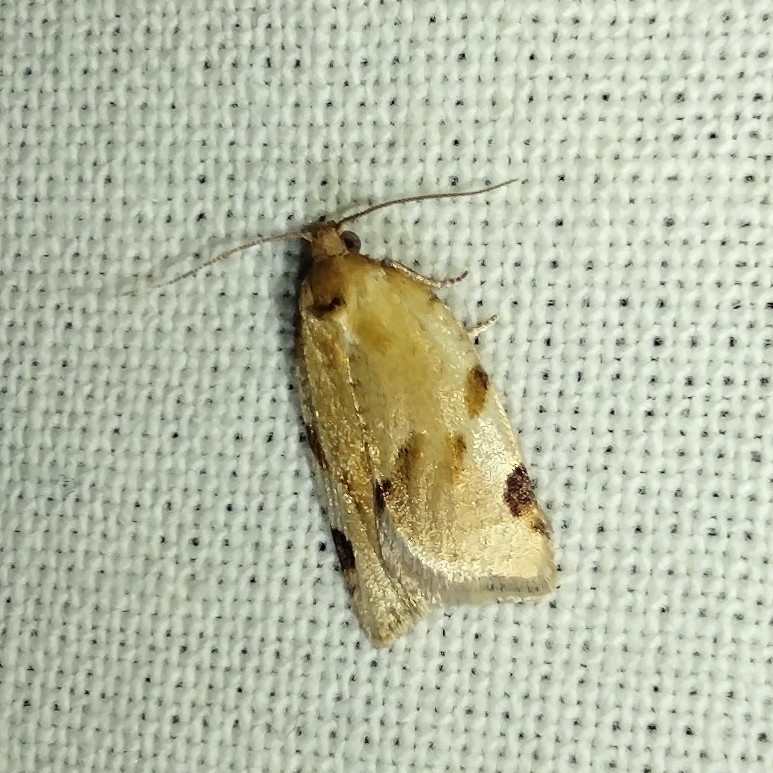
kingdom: Animalia
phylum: Arthropoda
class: Insecta
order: Lepidoptera
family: Tortricidae
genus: Paramesia
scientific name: Paramesia gnomana
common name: Small straw twist
